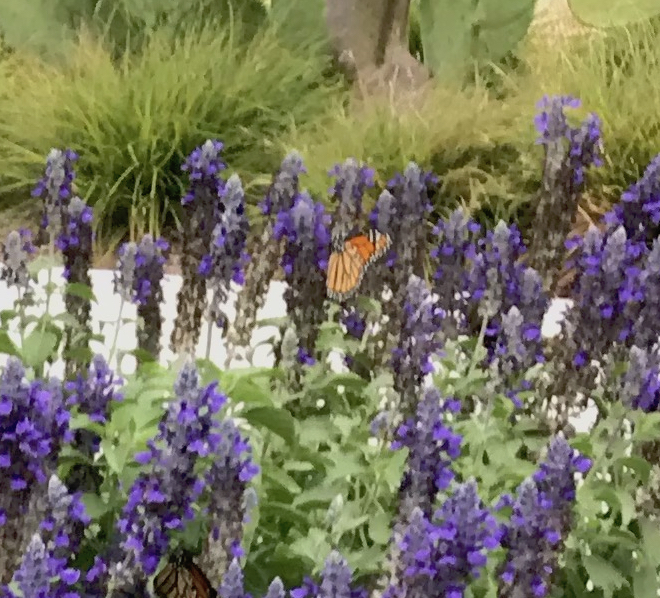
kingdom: Animalia
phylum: Arthropoda
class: Insecta
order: Lepidoptera
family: Nymphalidae
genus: Danaus
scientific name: Danaus plexippus
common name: Monarch
